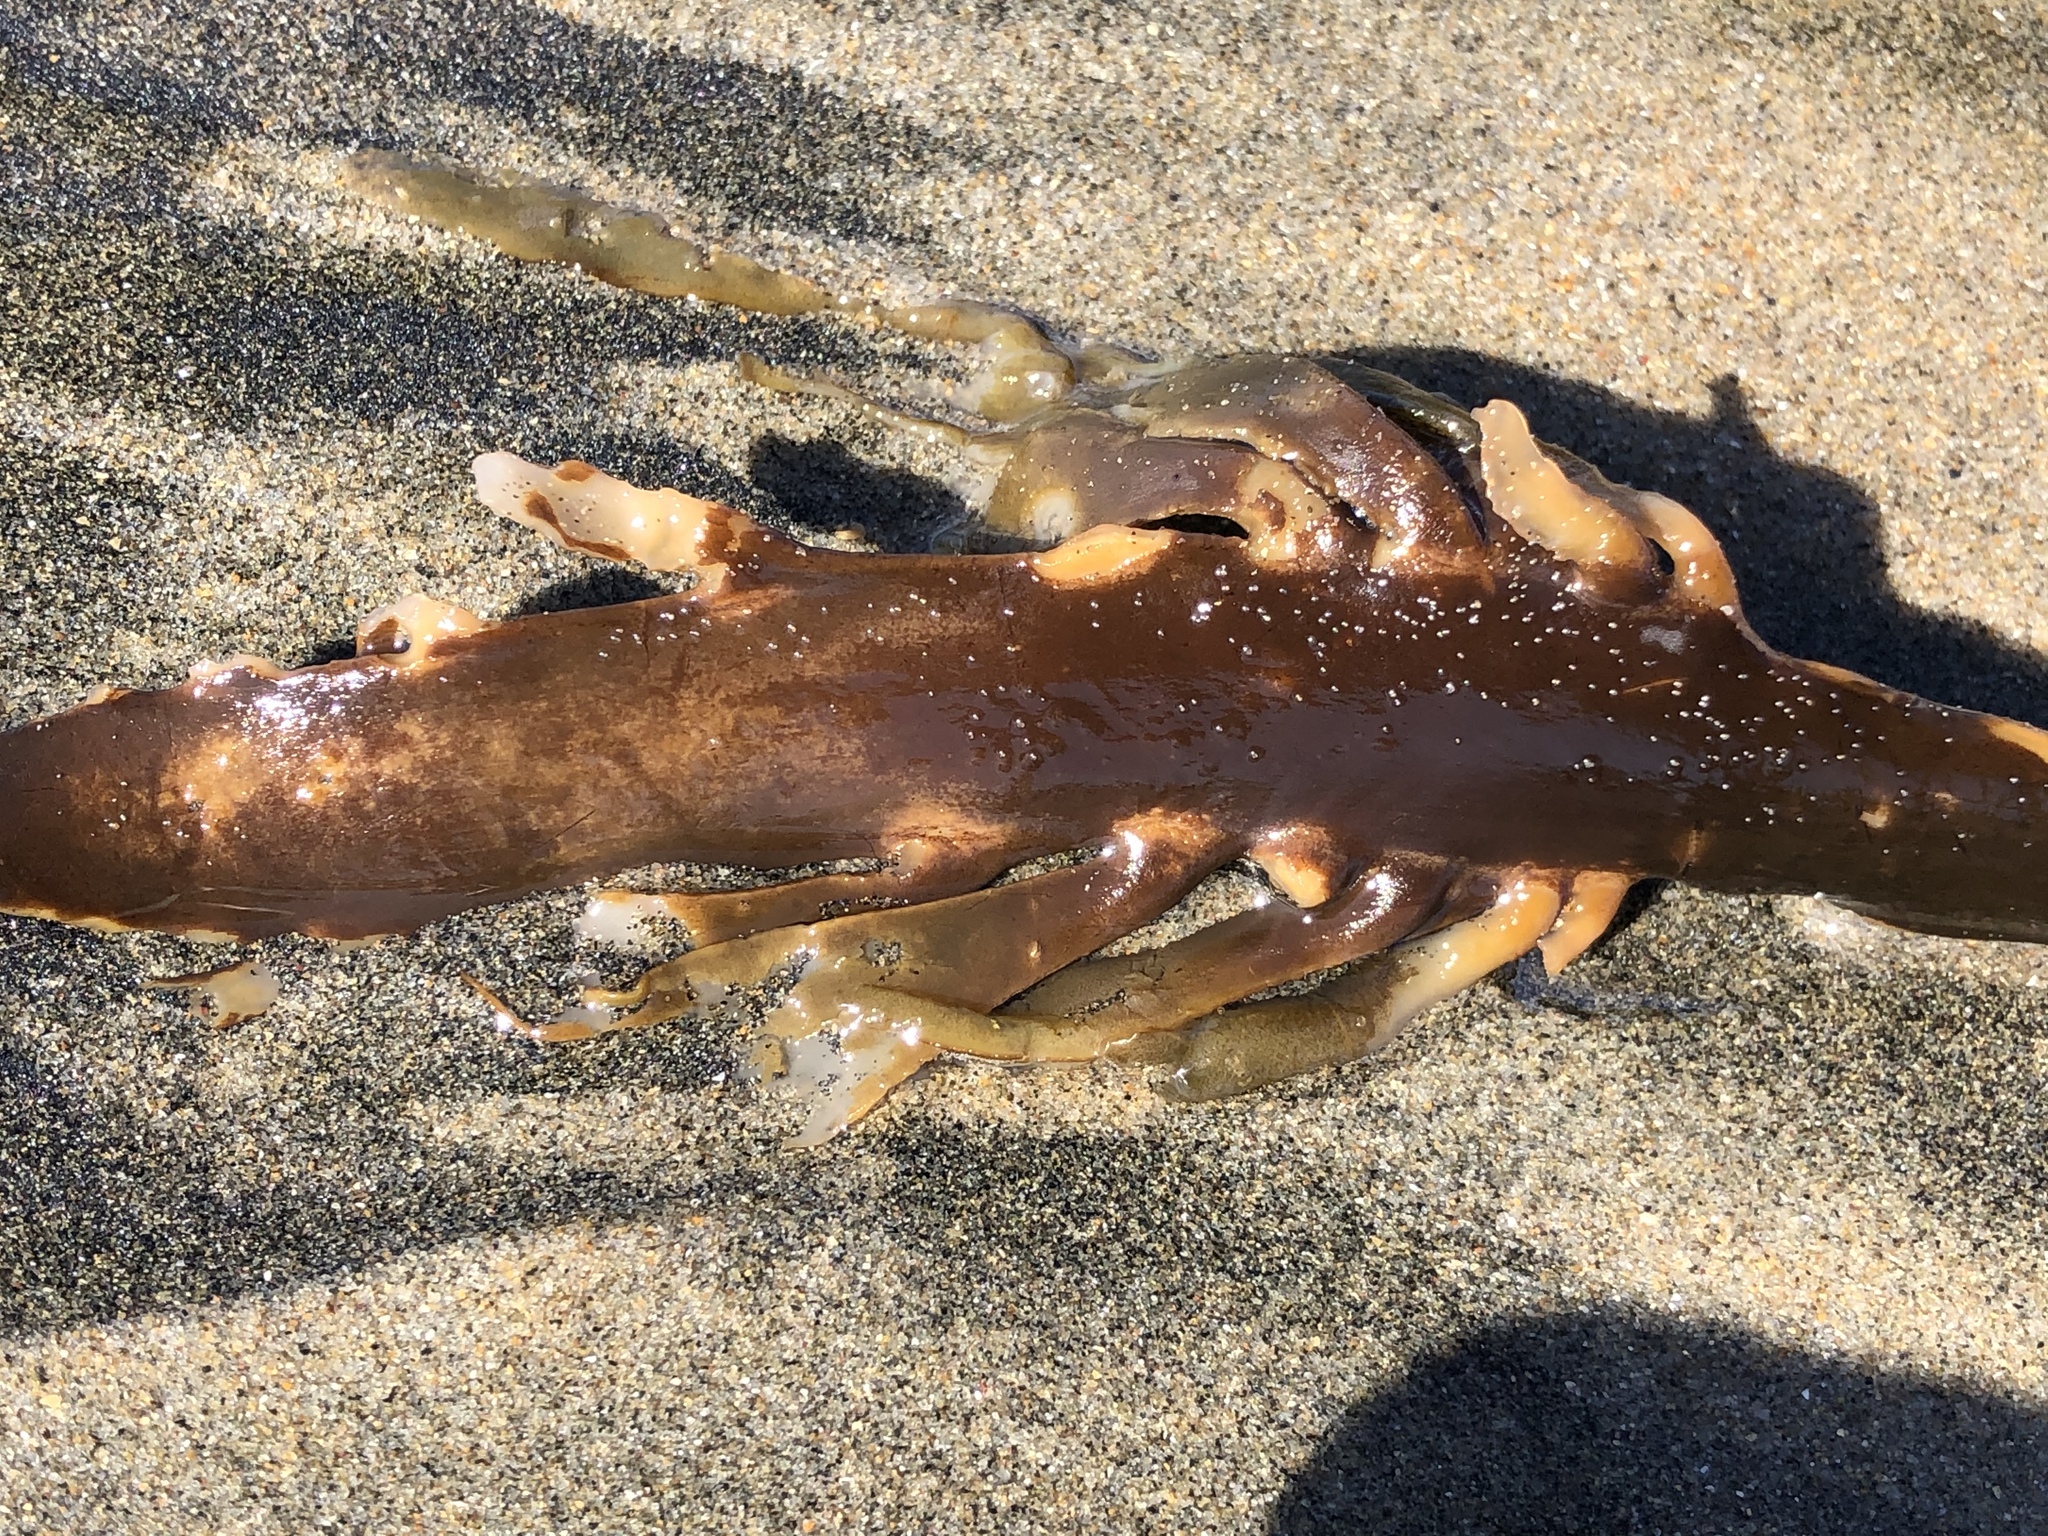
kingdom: Chromista
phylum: Ochrophyta
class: Phaeophyceae
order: Laminariales
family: Alariaceae
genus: Pterygophora
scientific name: Pterygophora californica
